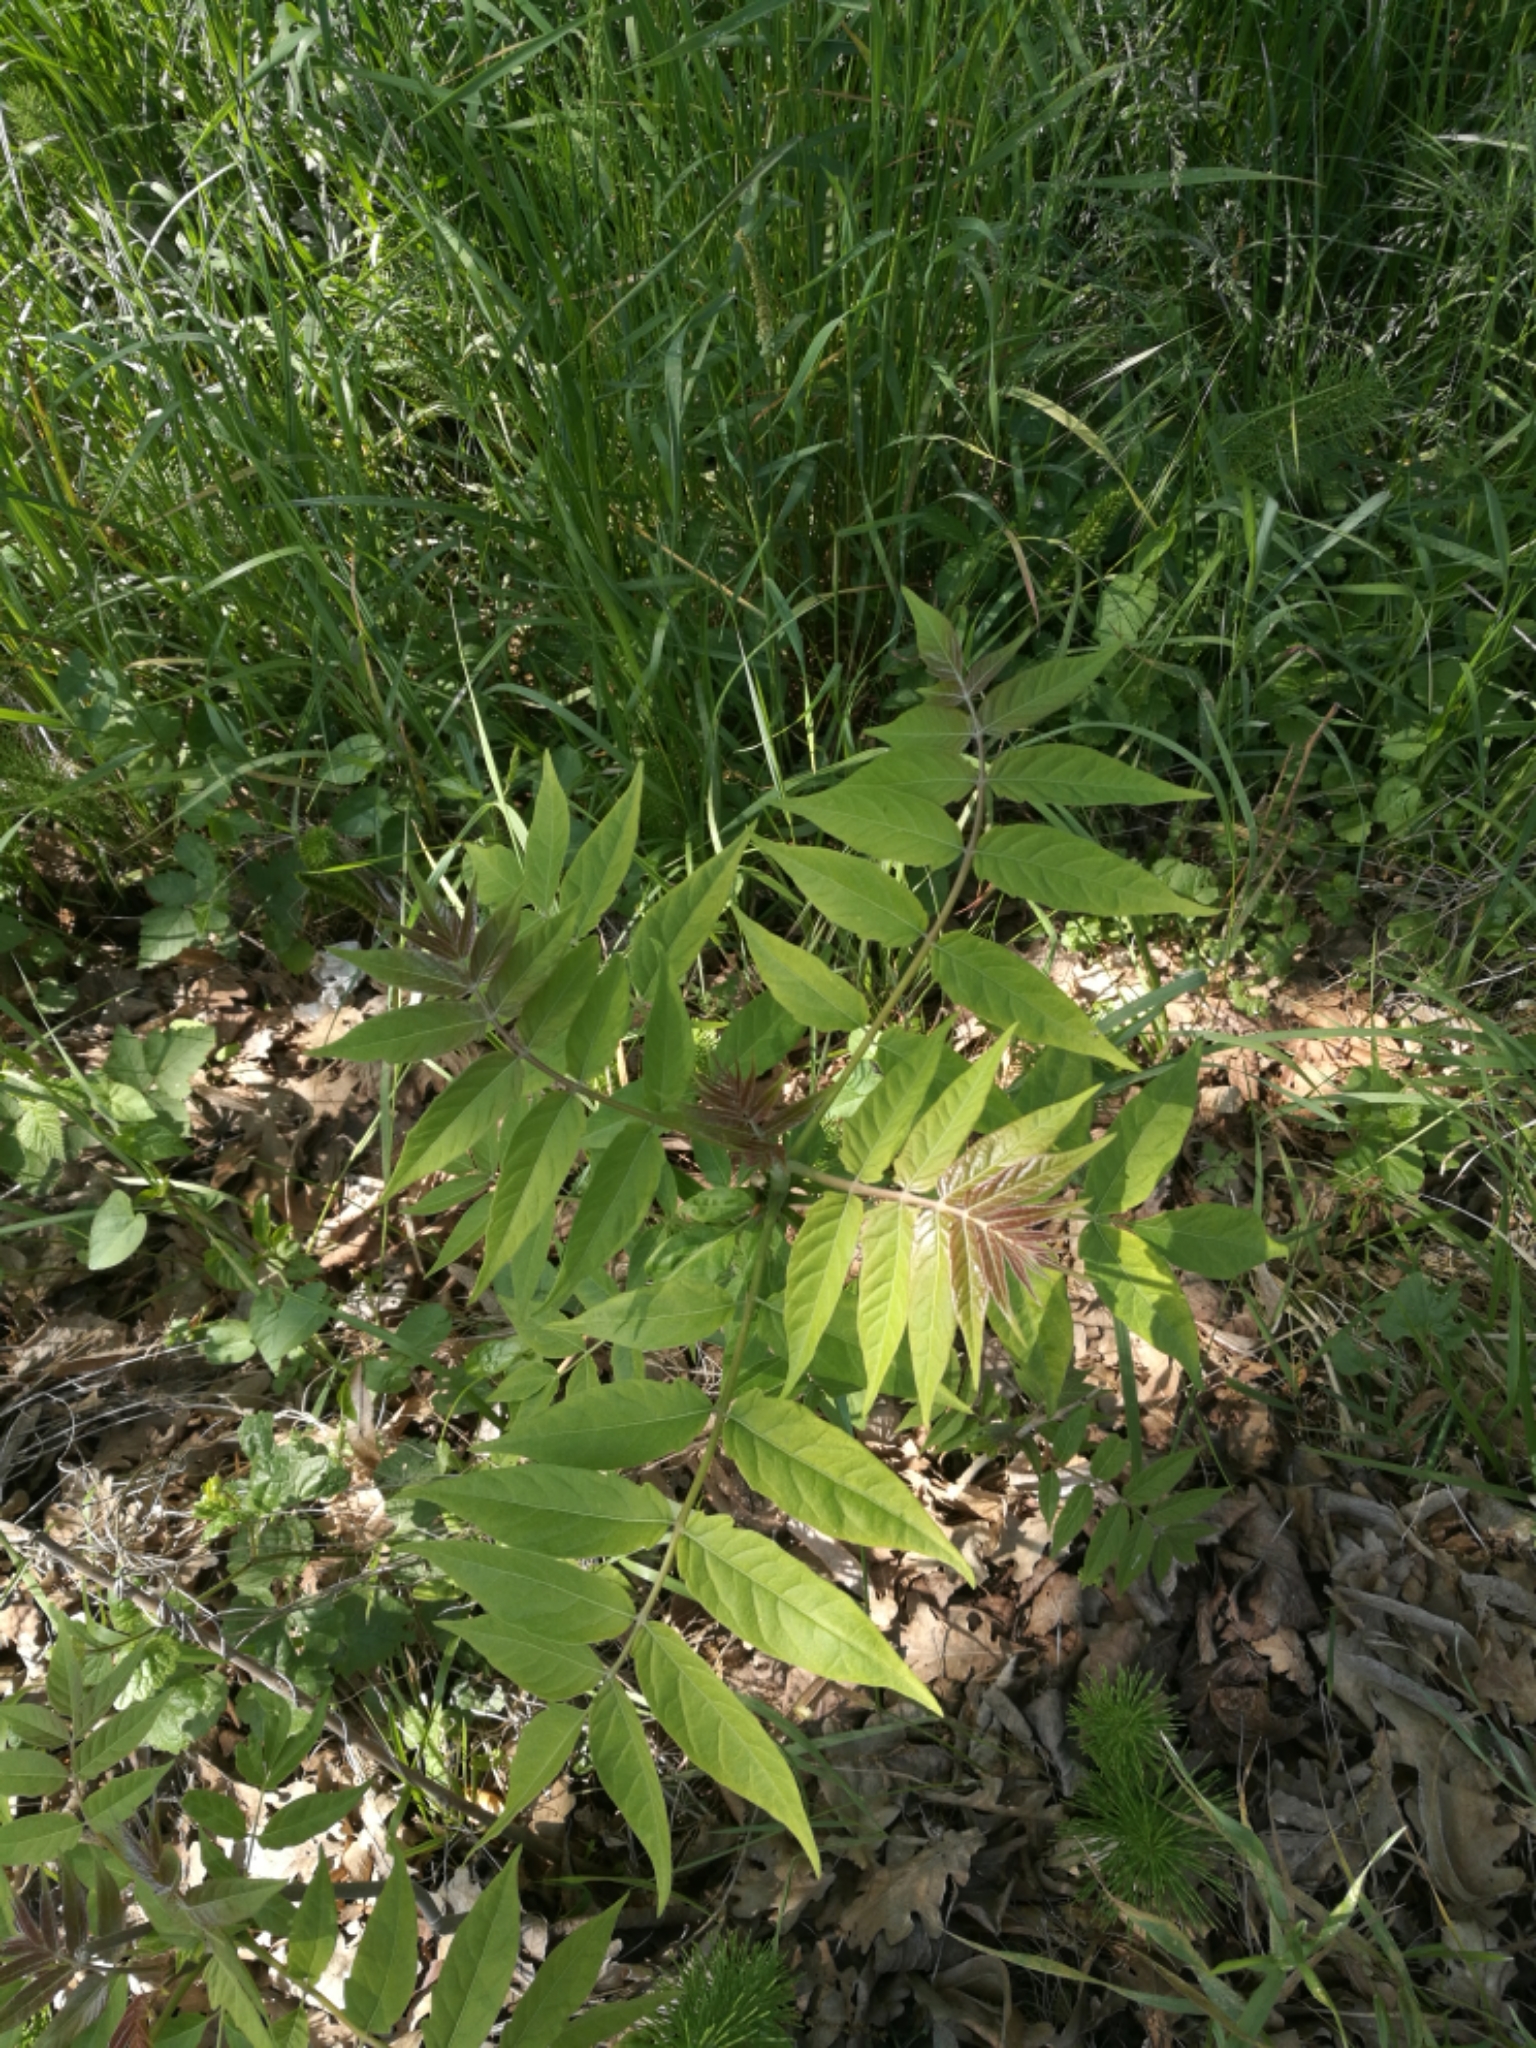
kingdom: Plantae
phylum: Tracheophyta
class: Magnoliopsida
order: Sapindales
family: Simaroubaceae
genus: Ailanthus
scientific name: Ailanthus altissima
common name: Tree-of-heaven
